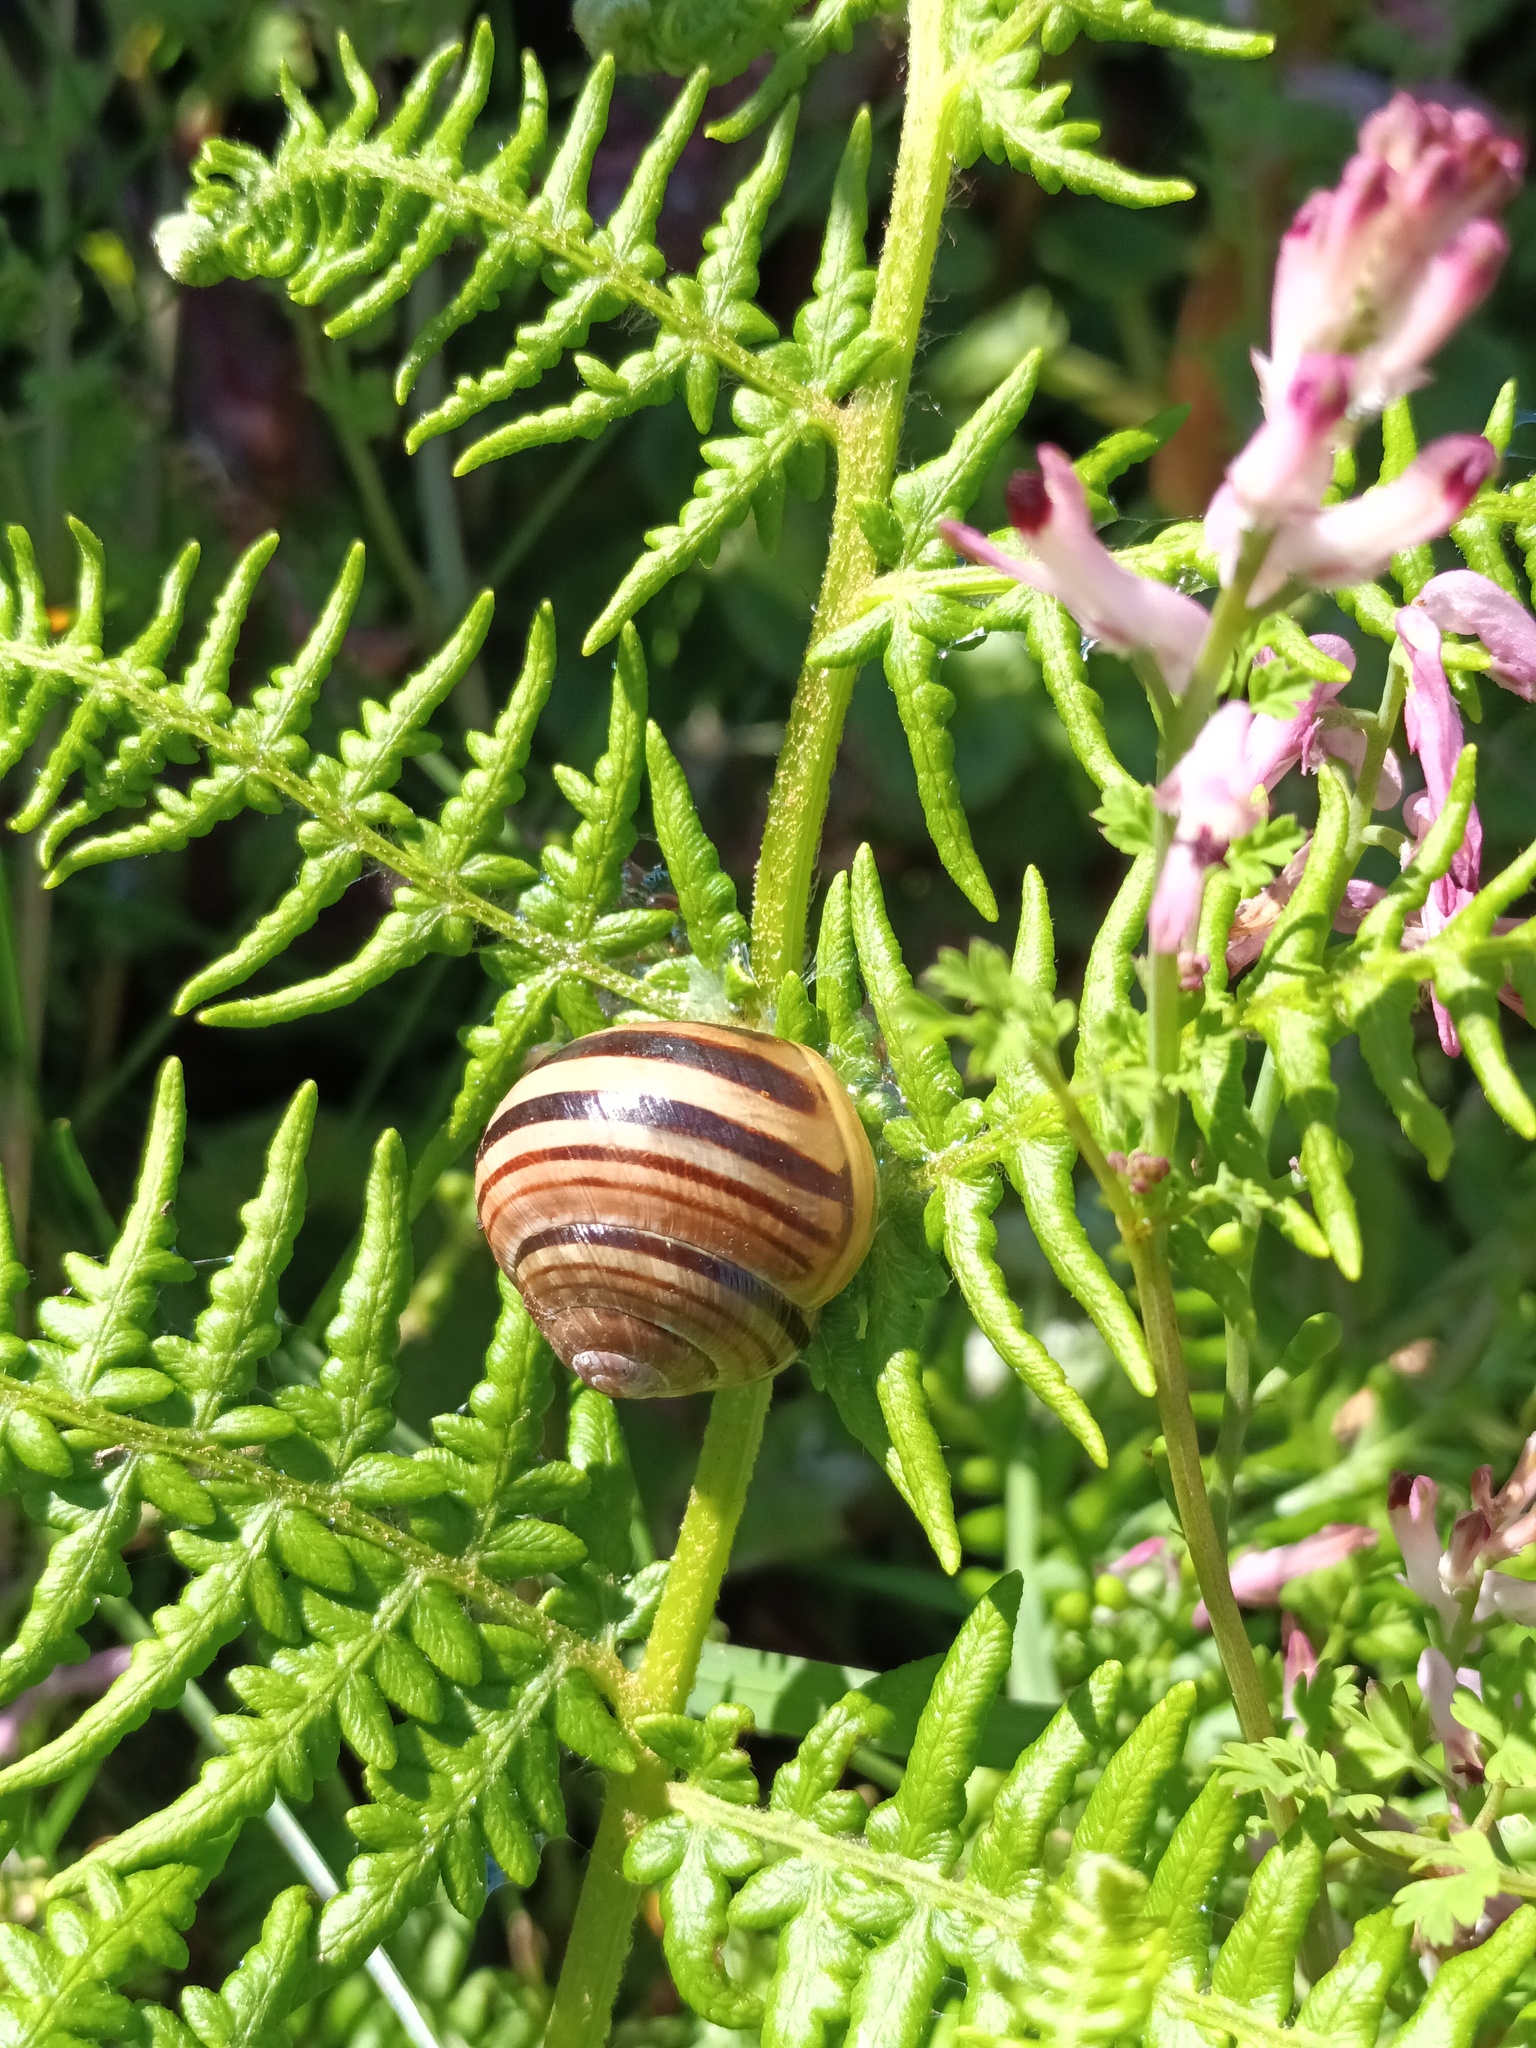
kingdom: Animalia
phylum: Mollusca
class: Gastropoda
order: Stylommatophora
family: Helicidae
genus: Cepaea
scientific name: Cepaea
